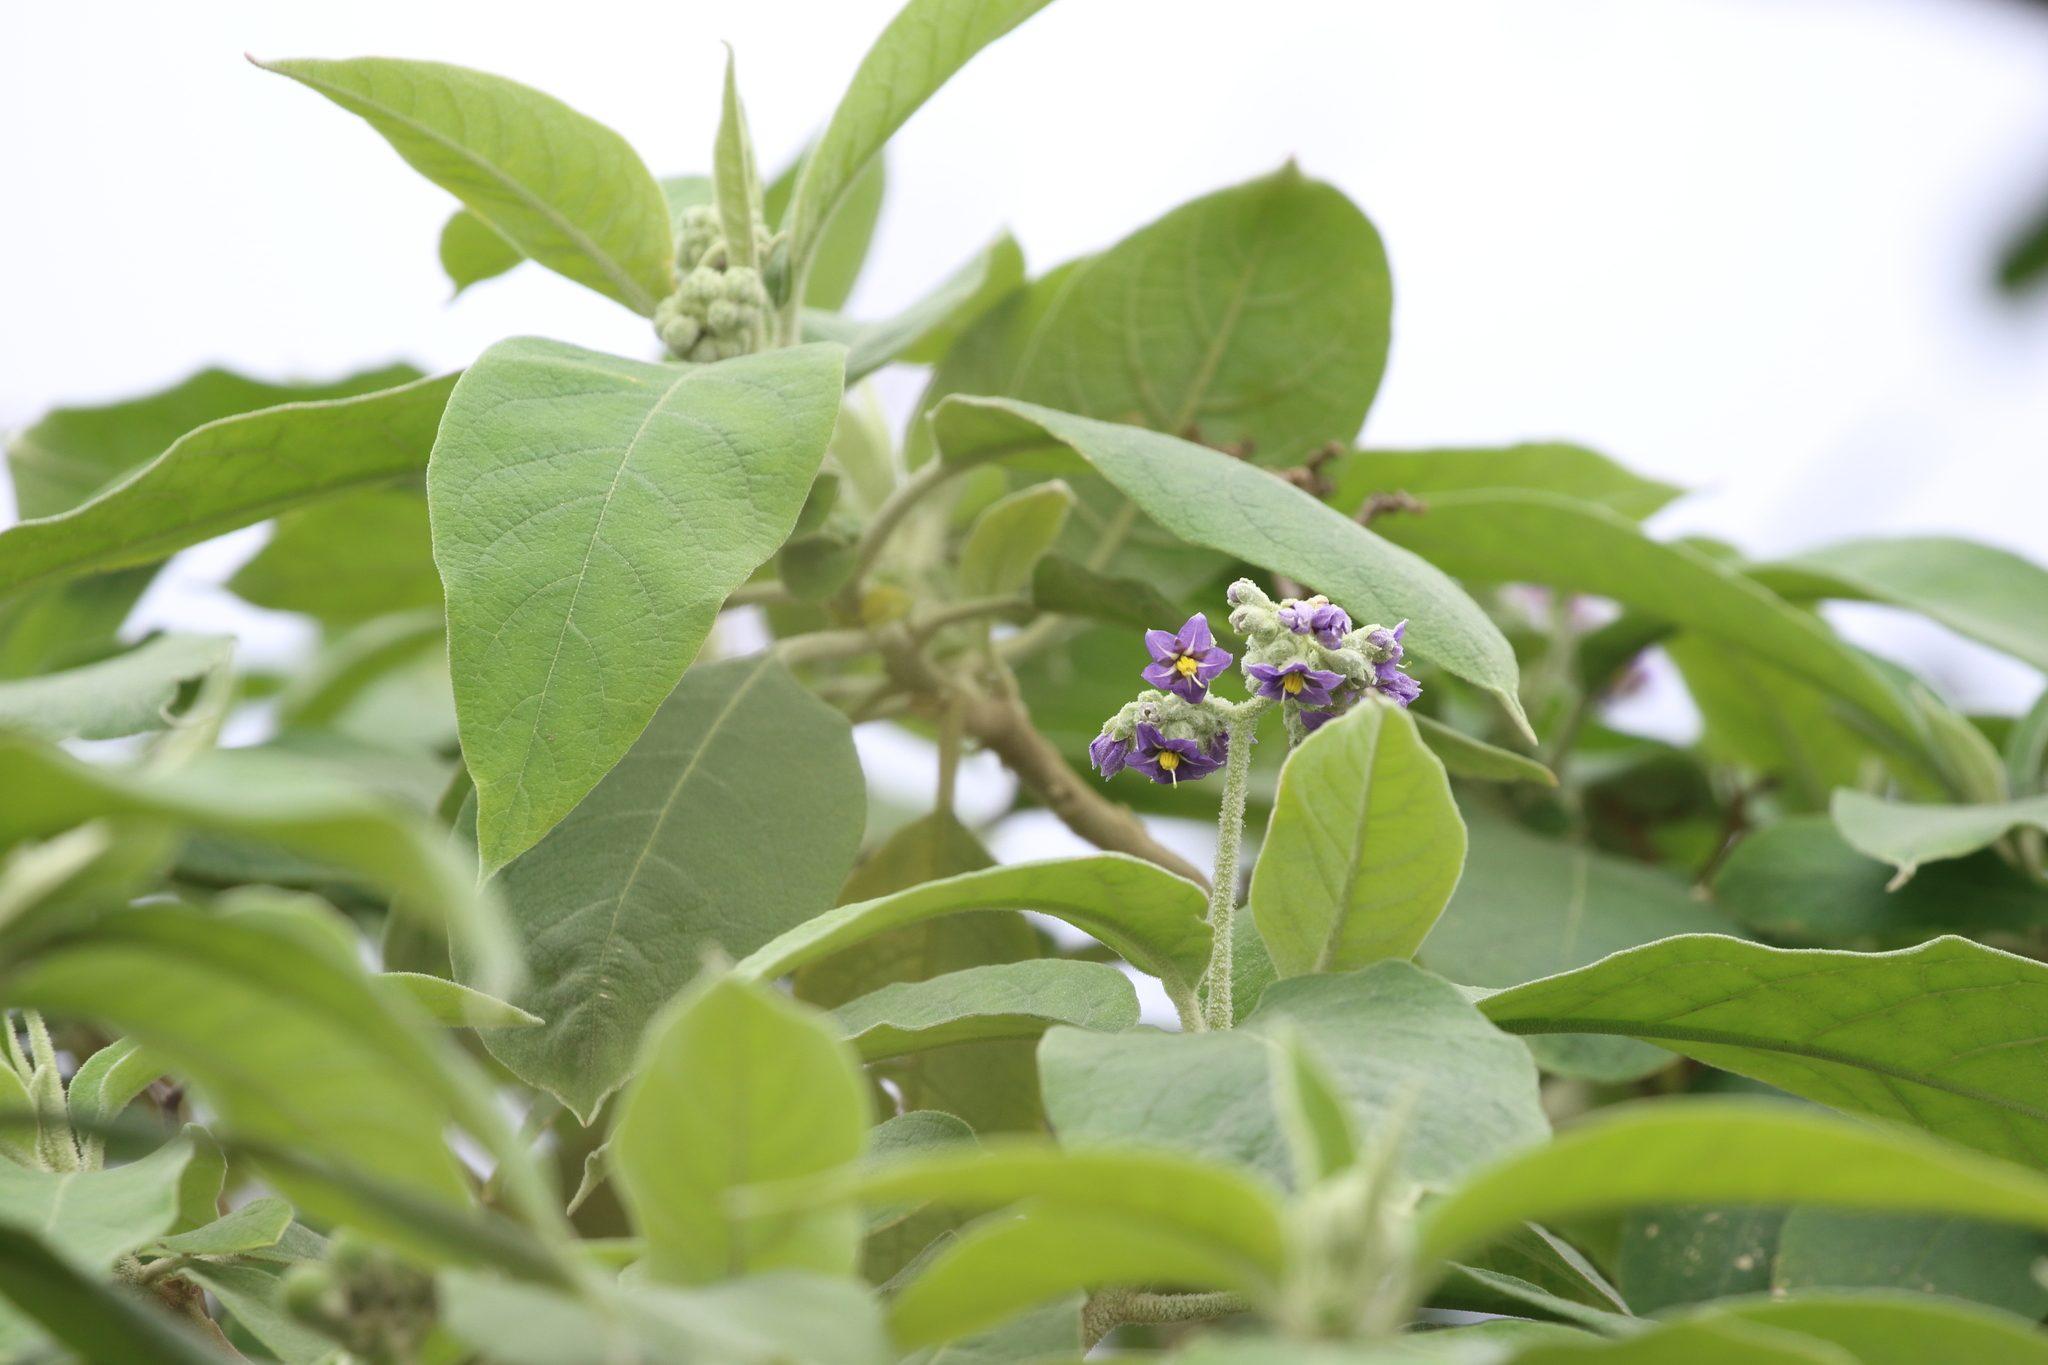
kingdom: Plantae
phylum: Tracheophyta
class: Magnoliopsida
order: Solanales
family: Solanaceae
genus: Solanum
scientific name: Solanum mauritianum
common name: Earleaf nightshade
